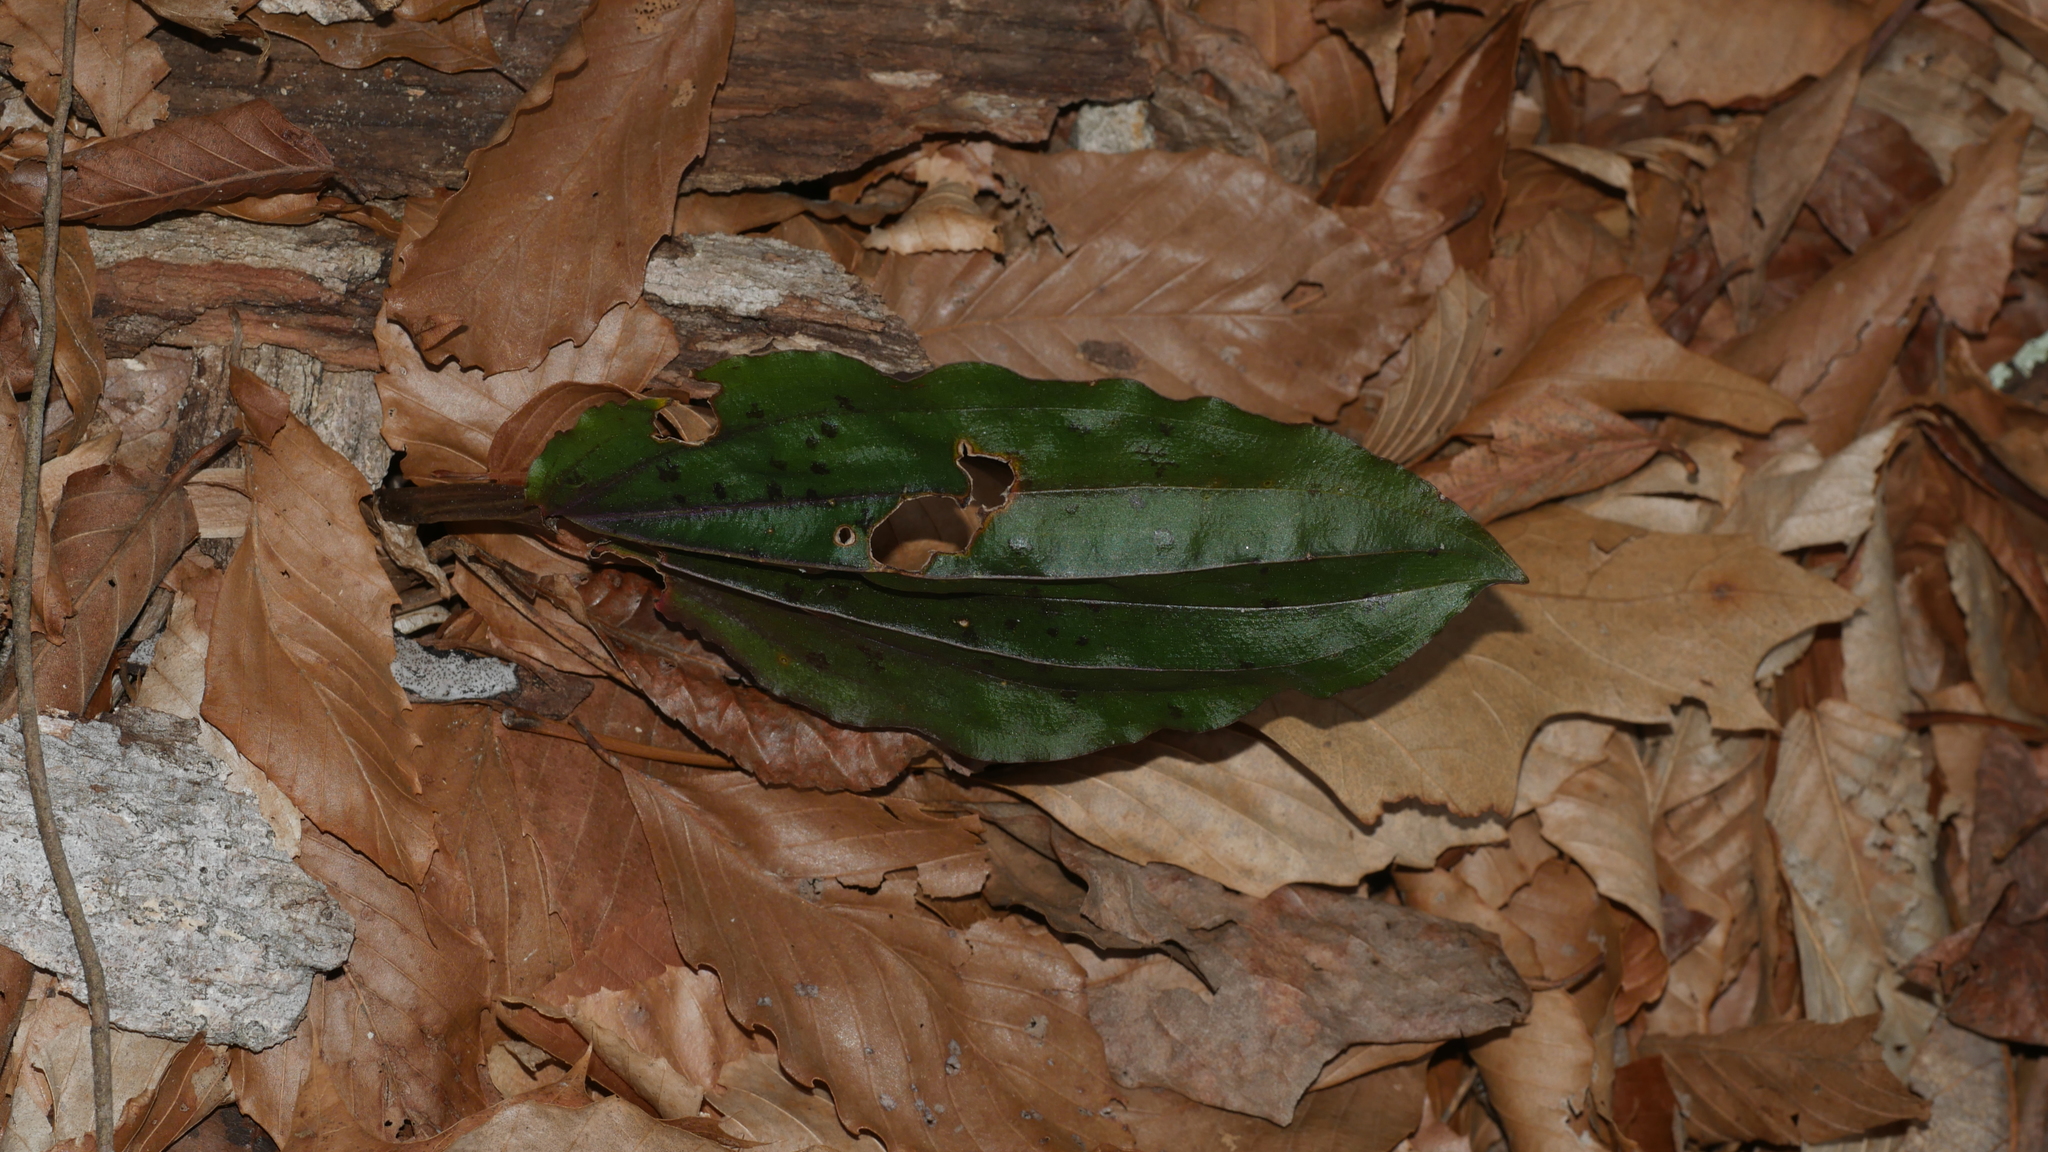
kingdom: Plantae
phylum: Tracheophyta
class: Liliopsida
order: Asparagales
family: Orchidaceae
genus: Tipularia
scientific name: Tipularia discolor
